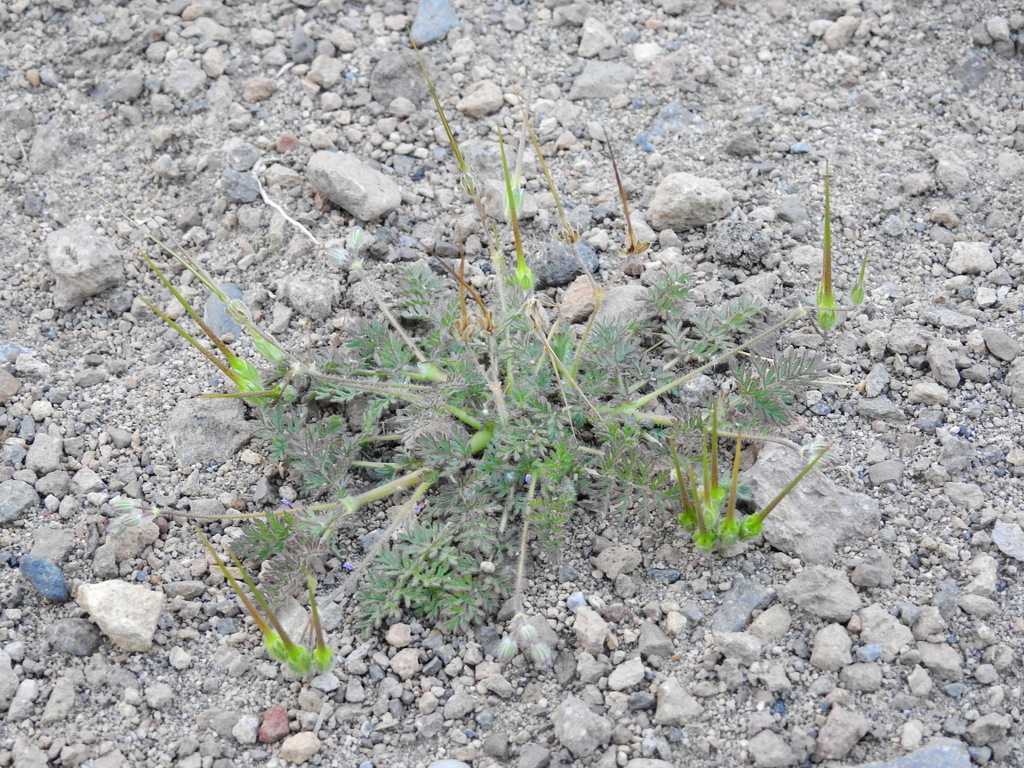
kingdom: Plantae
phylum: Tracheophyta
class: Magnoliopsida
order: Geraniales
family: Geraniaceae
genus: Erodium
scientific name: Erodium cicutarium
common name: Common stork's-bill
